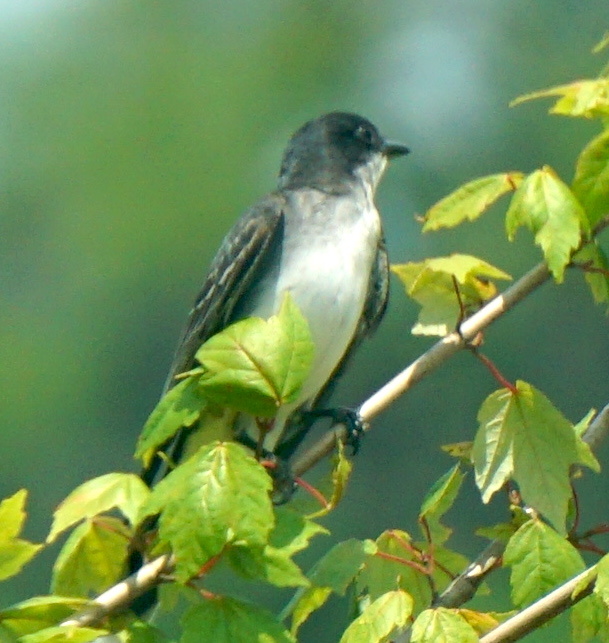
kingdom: Animalia
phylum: Chordata
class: Aves
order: Passeriformes
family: Tyrannidae
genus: Tyrannus
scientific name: Tyrannus tyrannus
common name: Eastern kingbird
